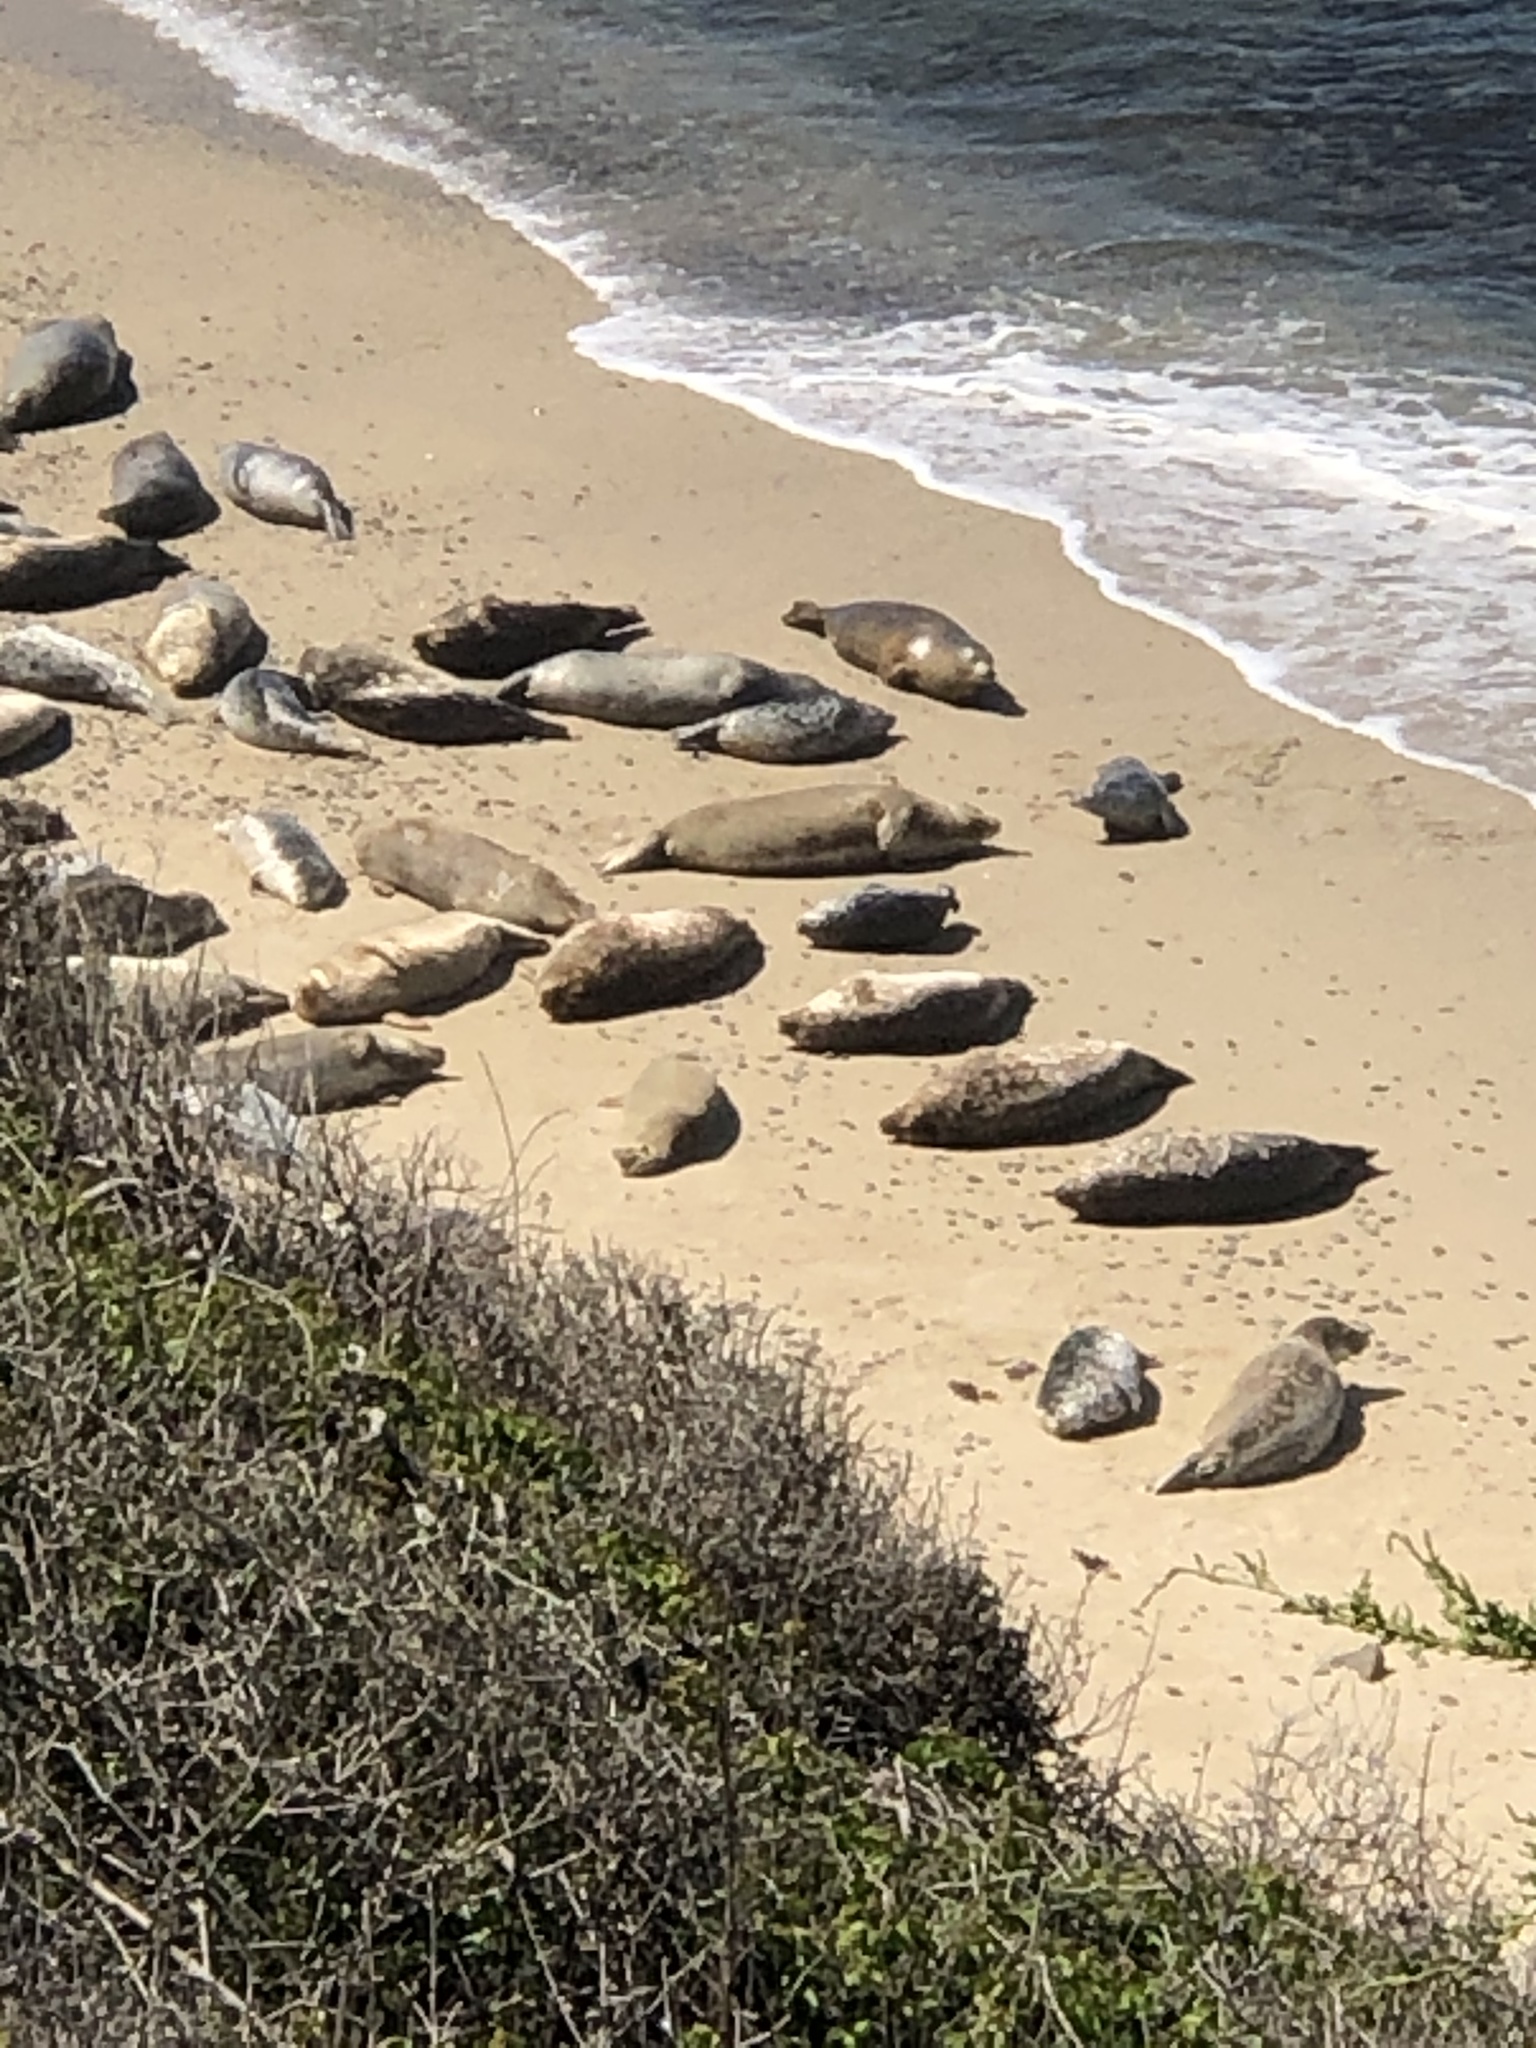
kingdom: Animalia
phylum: Chordata
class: Mammalia
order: Carnivora
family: Phocidae
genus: Phoca
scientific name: Phoca vitulina
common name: Harbor seal
